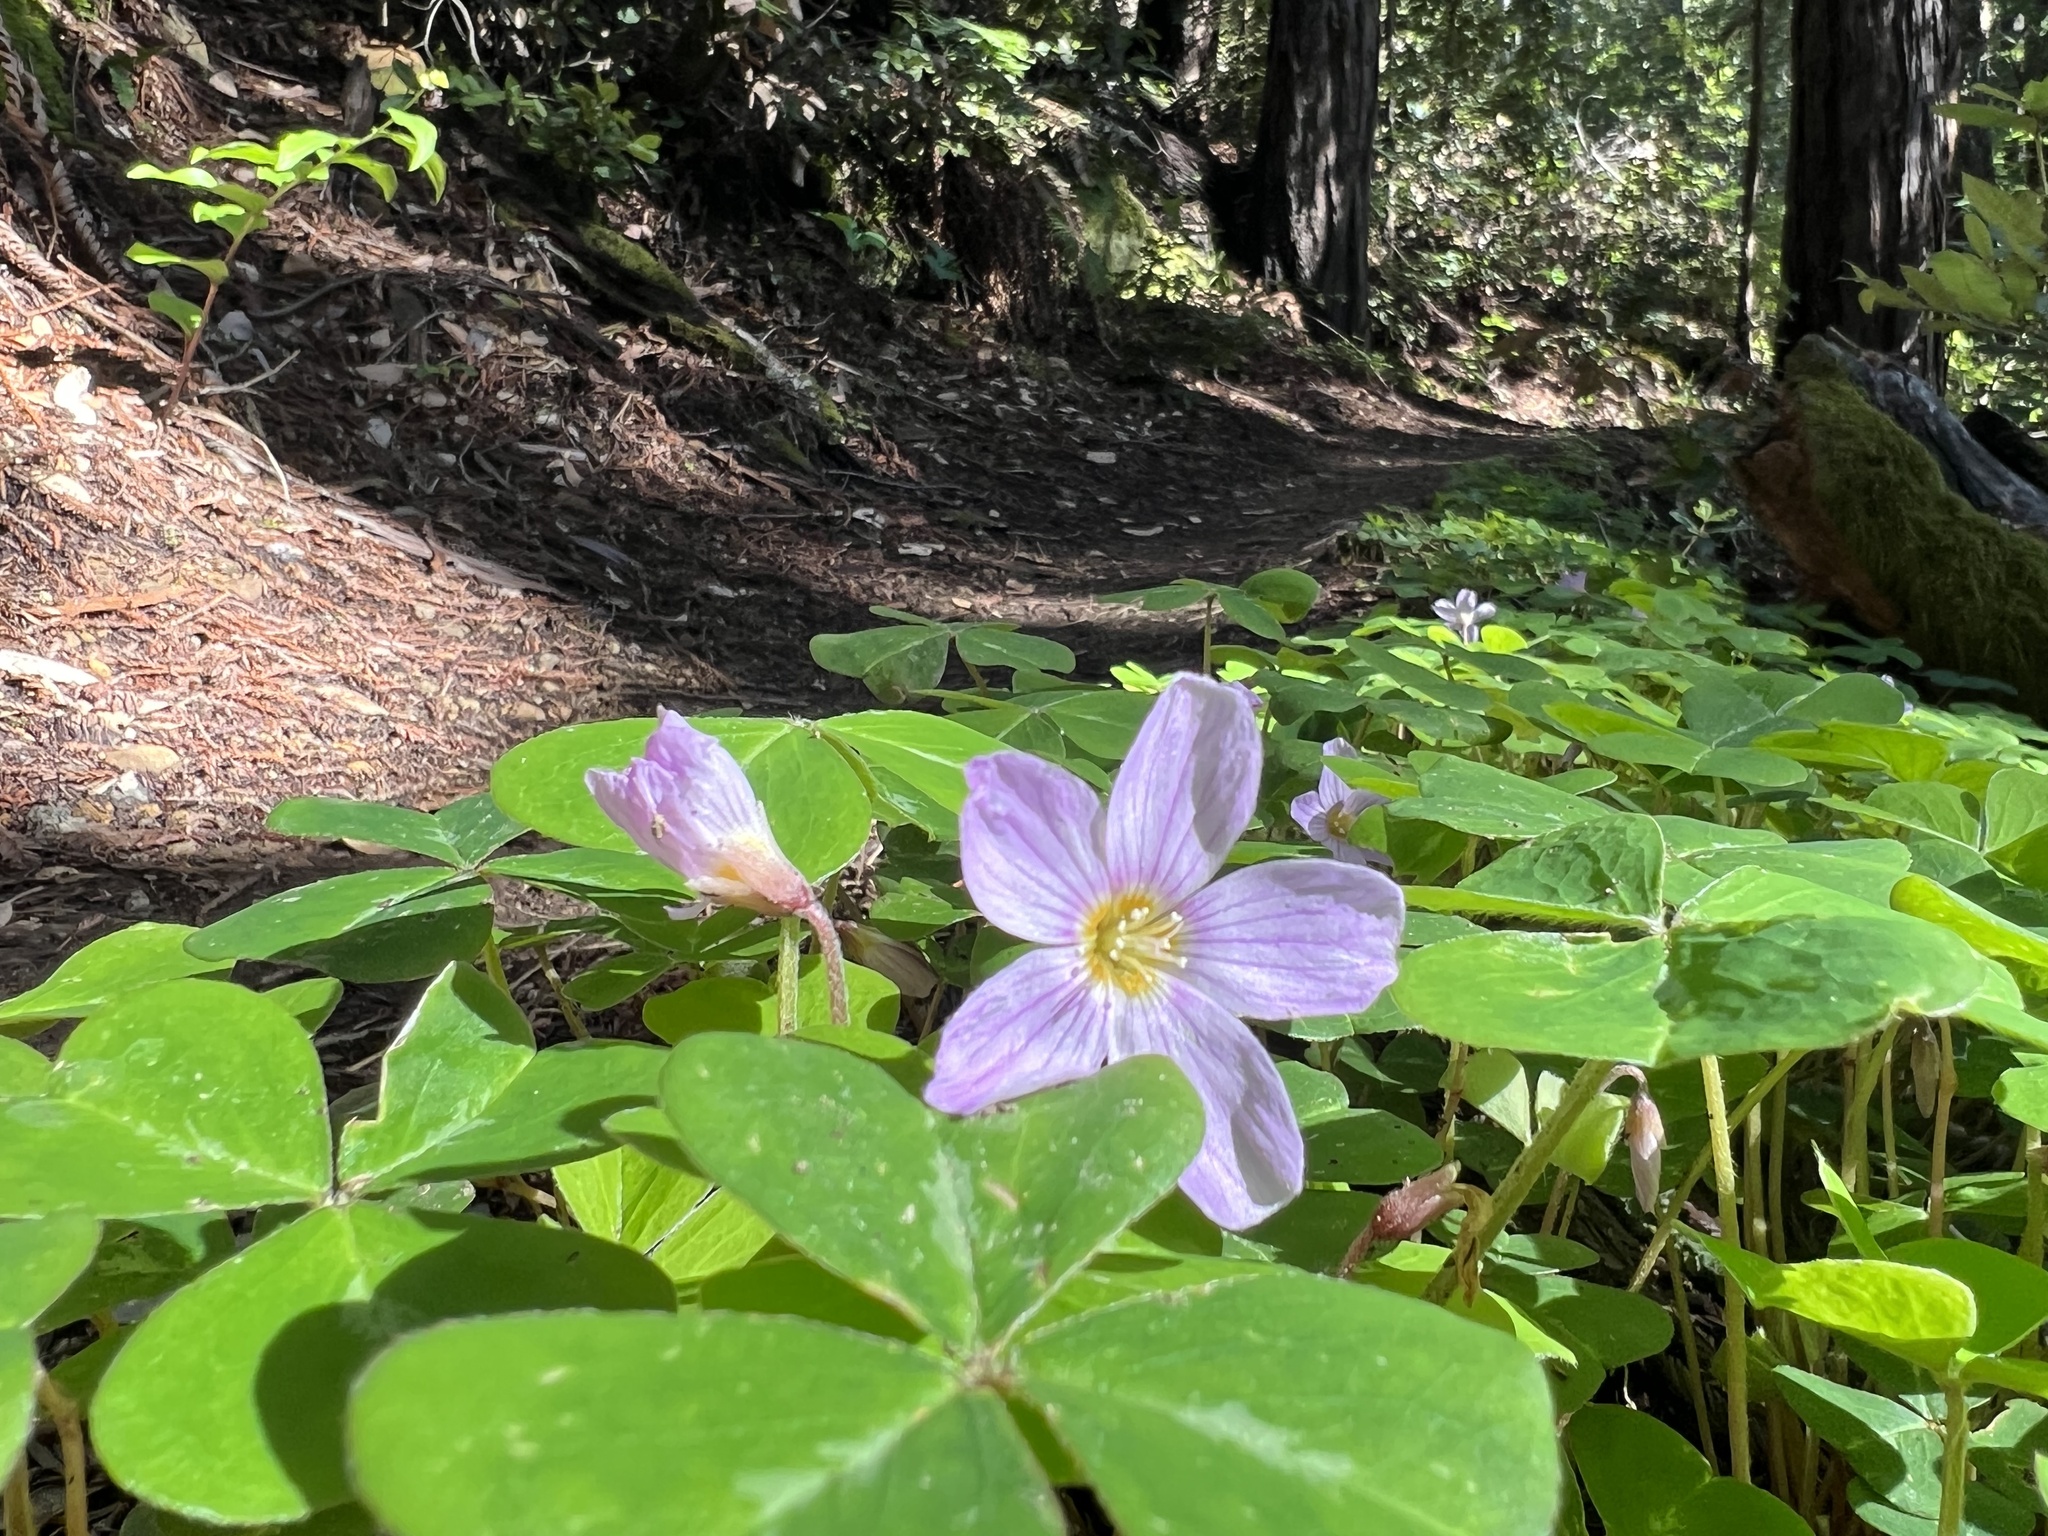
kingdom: Plantae
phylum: Tracheophyta
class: Magnoliopsida
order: Oxalidales
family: Oxalidaceae
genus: Oxalis
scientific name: Oxalis oregana
